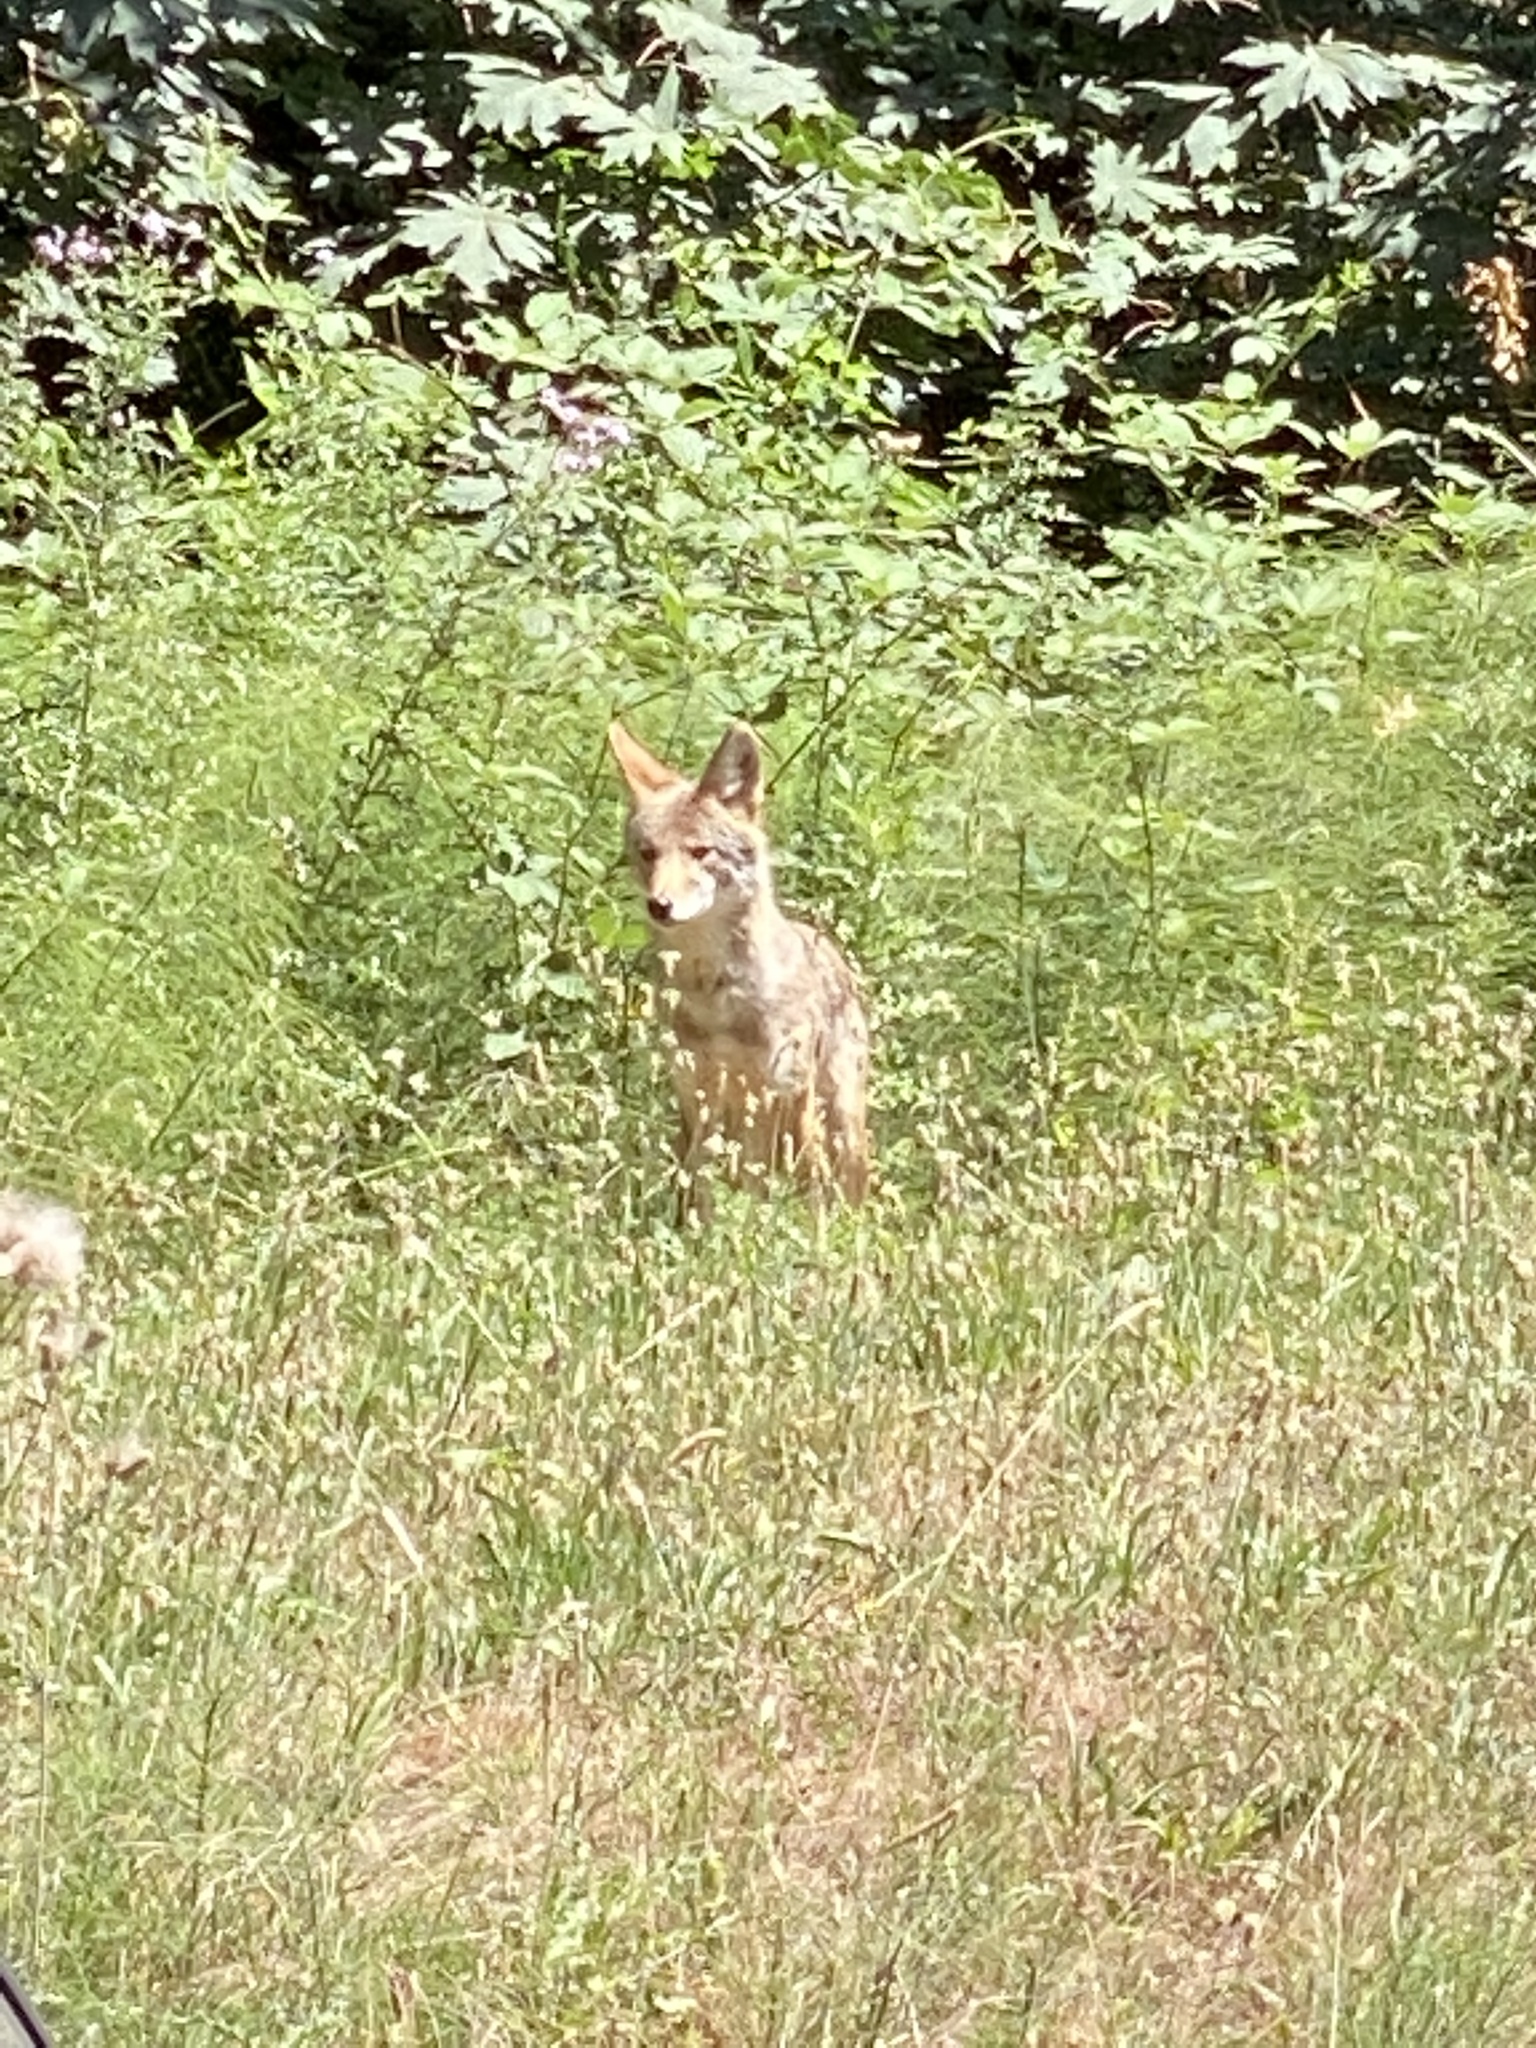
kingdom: Animalia
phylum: Chordata
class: Mammalia
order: Carnivora
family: Canidae
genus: Canis
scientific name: Canis latrans
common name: Coyote
